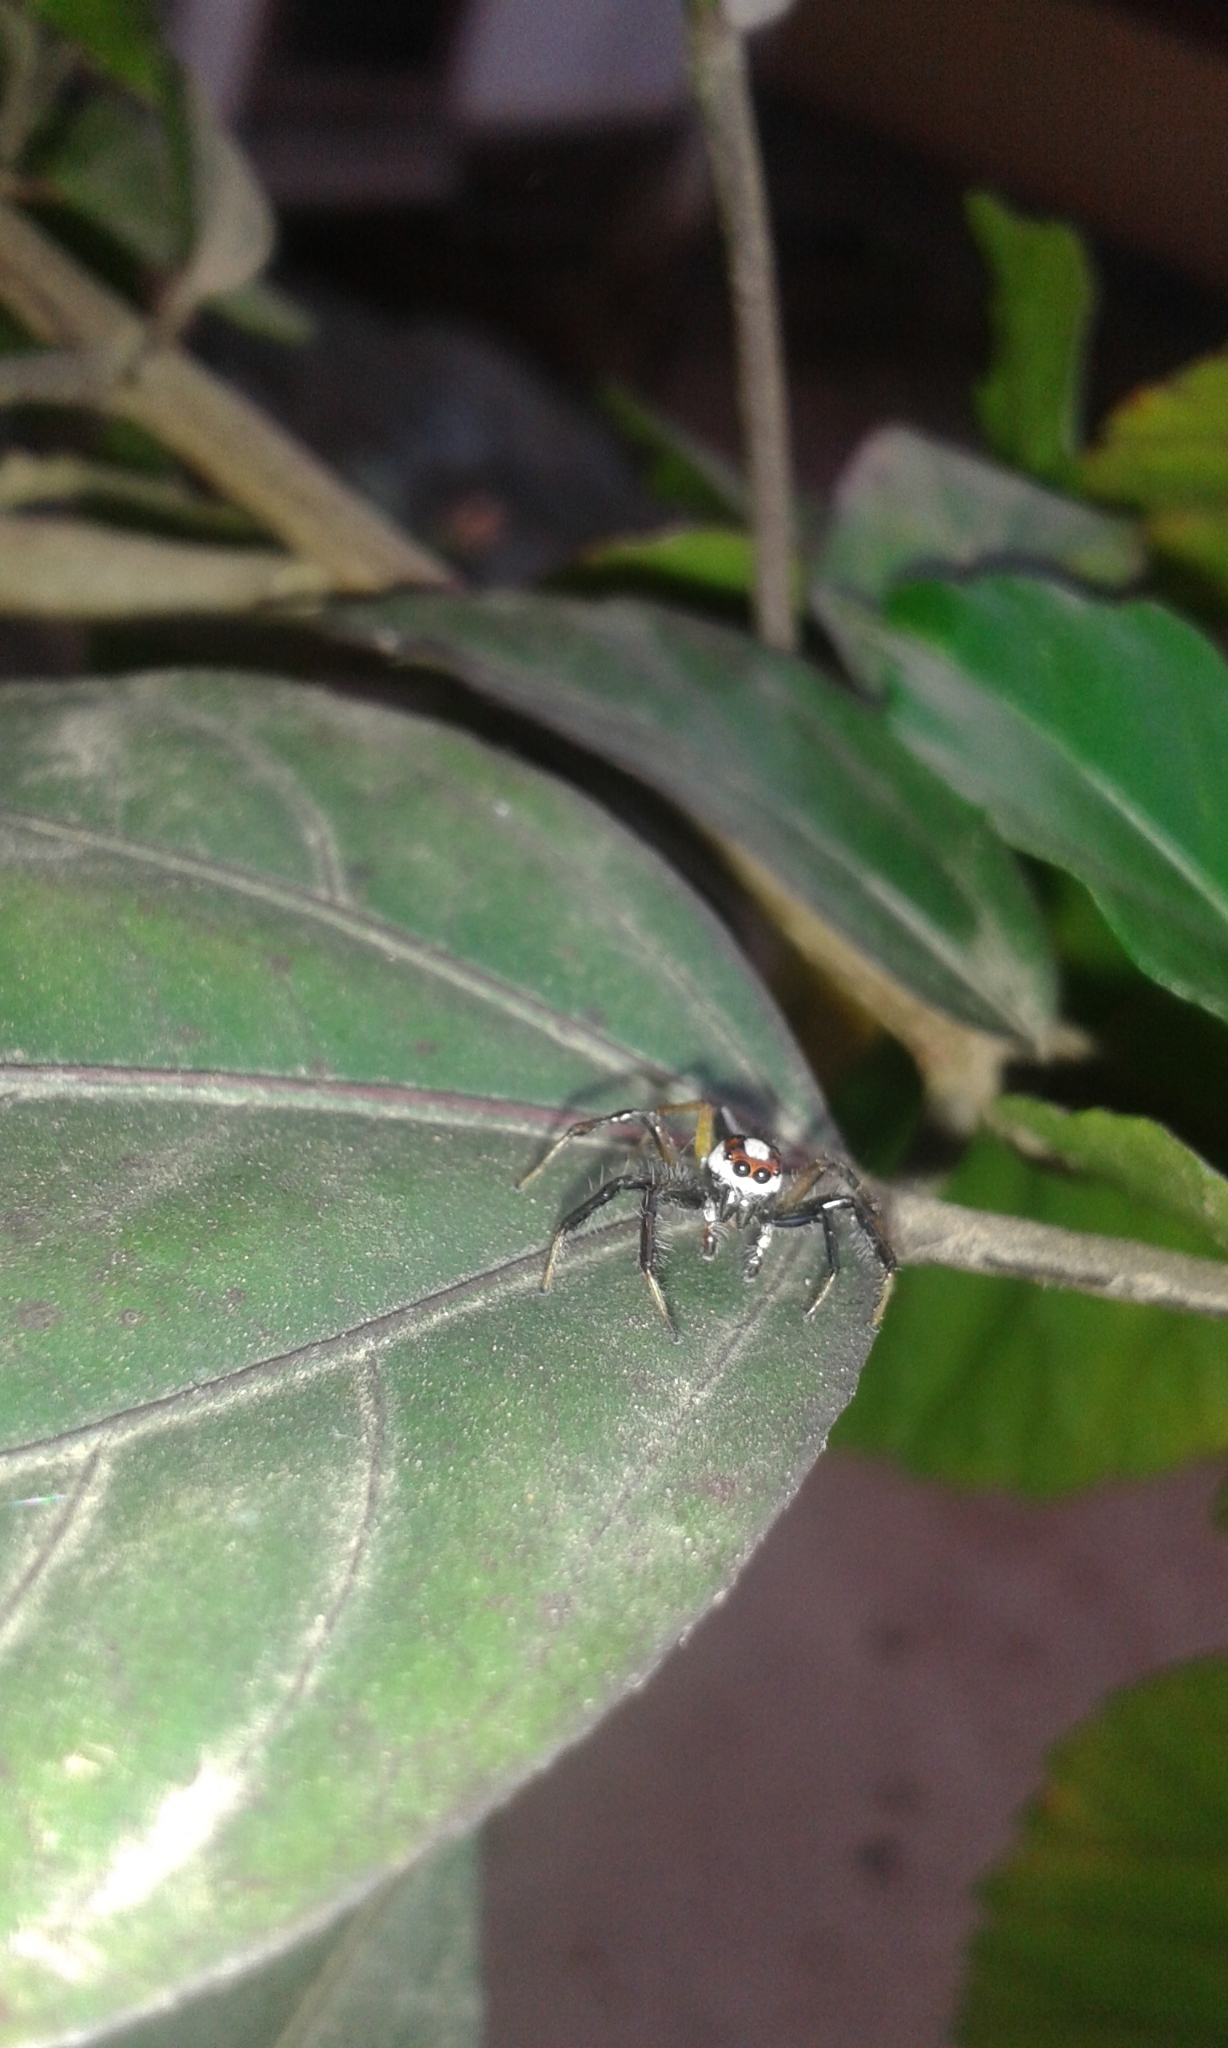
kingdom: Animalia
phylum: Arthropoda
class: Arachnida
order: Araneae
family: Salticidae
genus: Telamonia
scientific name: Telamonia dimidiata
